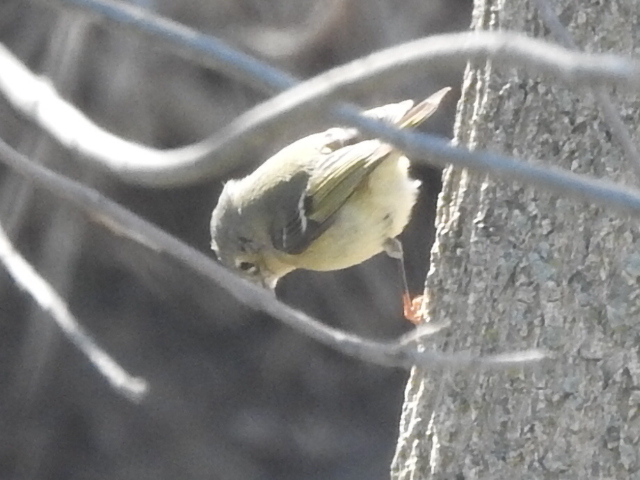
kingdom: Animalia
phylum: Chordata
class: Aves
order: Passeriformes
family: Regulidae
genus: Regulus
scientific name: Regulus calendula
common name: Ruby-crowned kinglet
